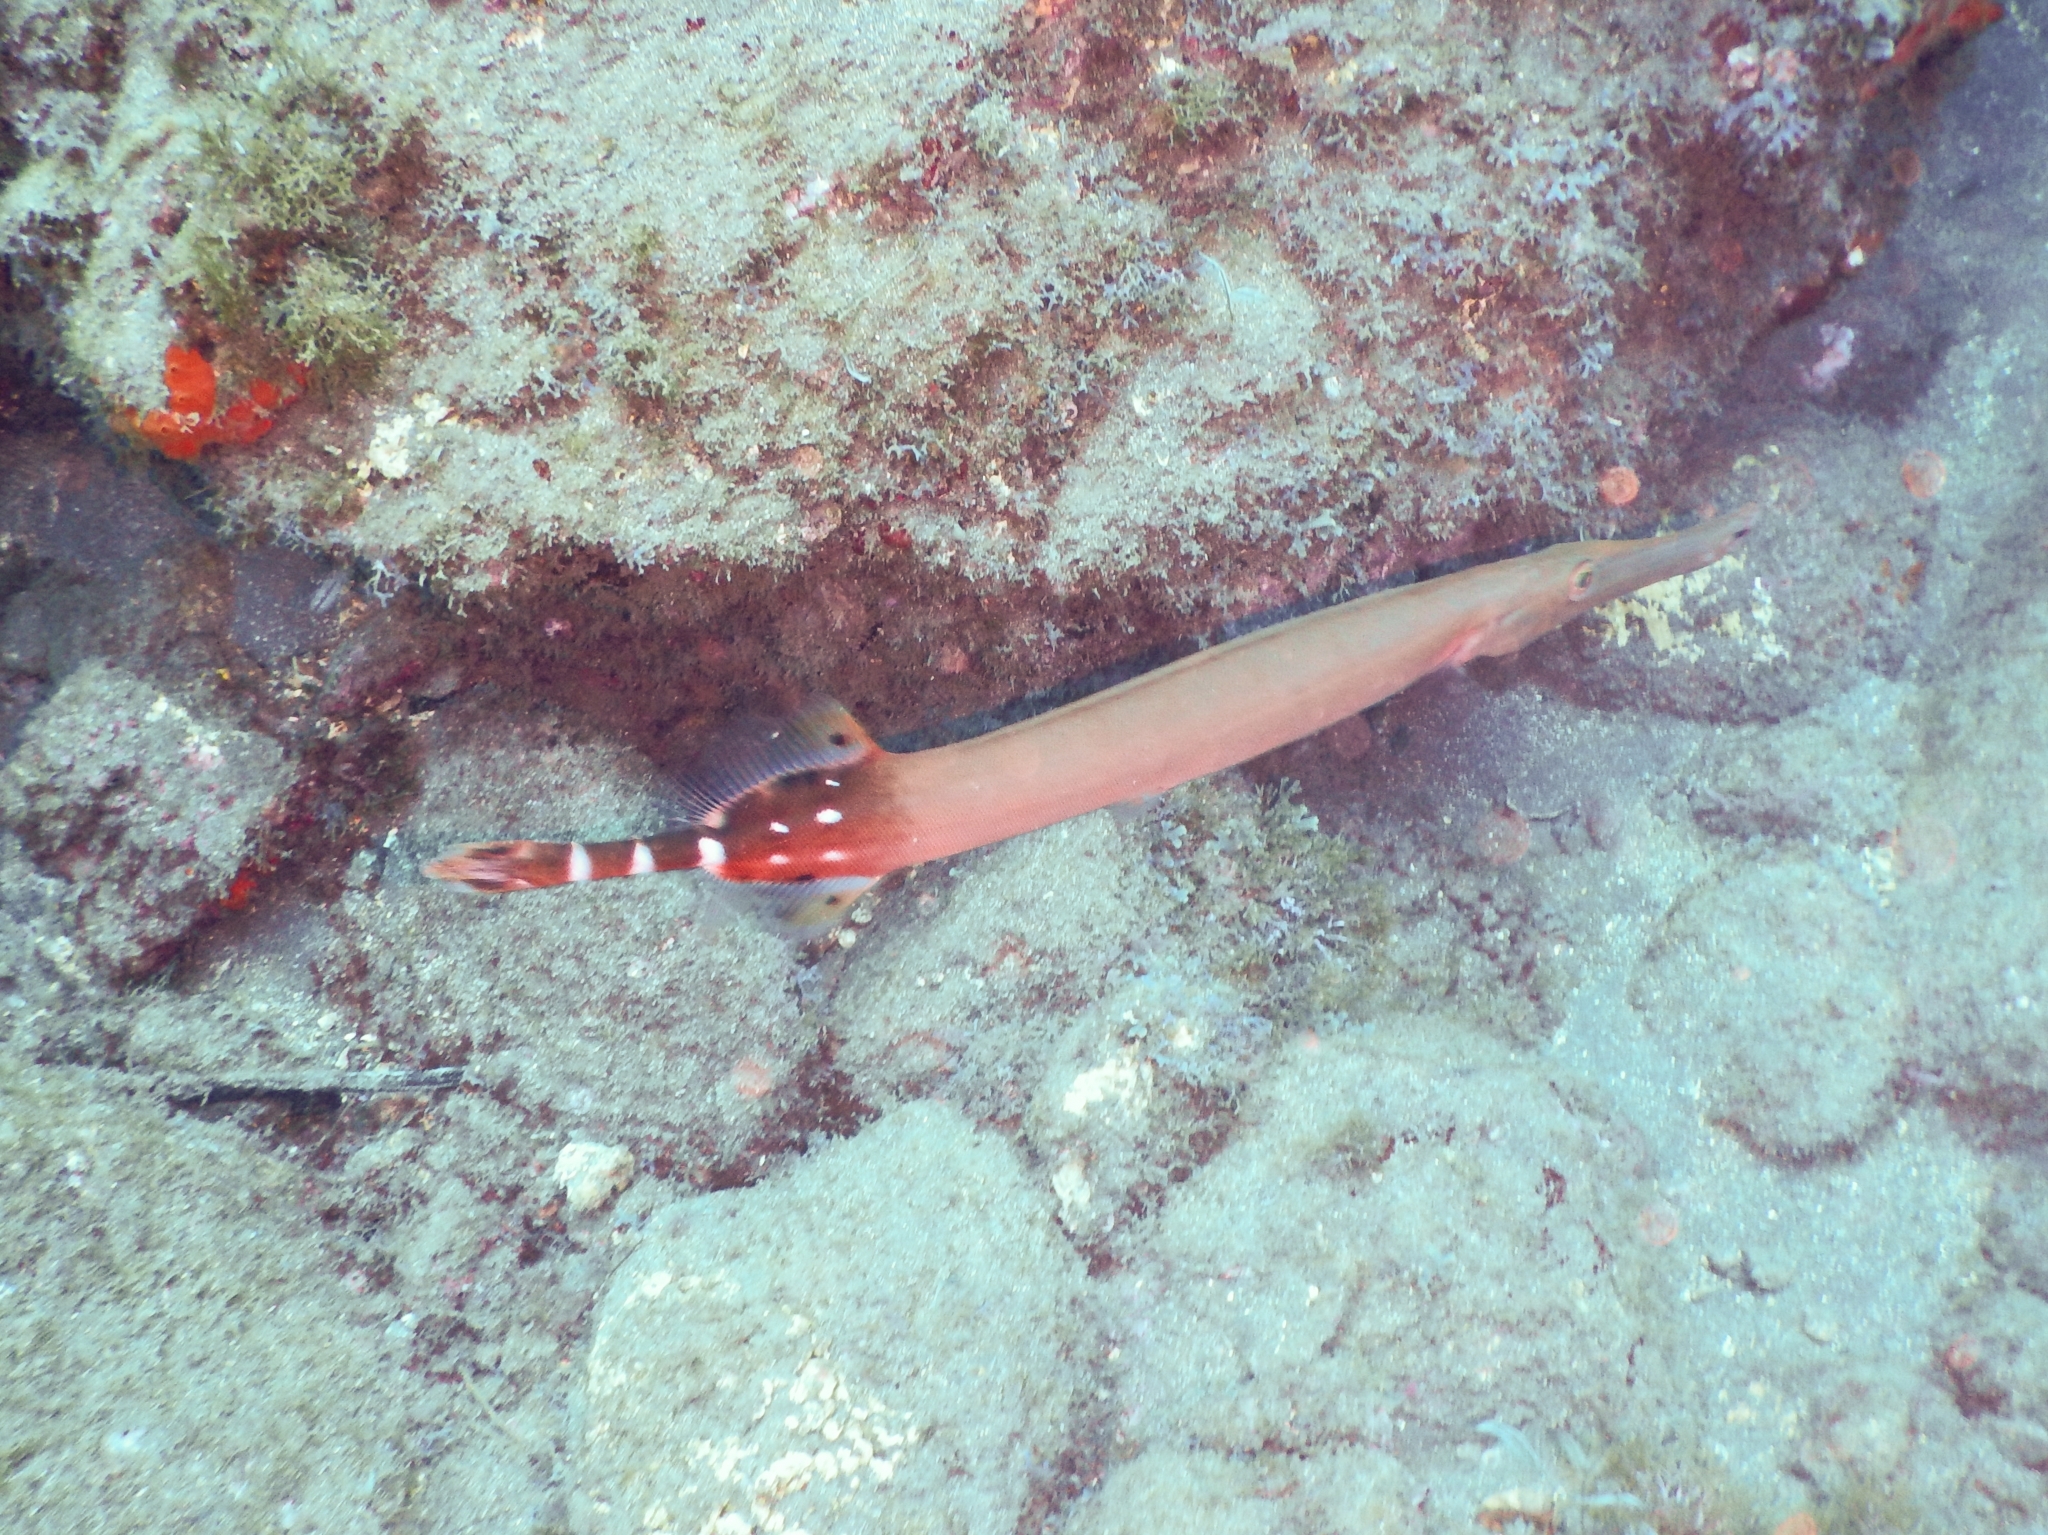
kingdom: Animalia
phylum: Chordata
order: Syngnathiformes
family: Aulostomidae
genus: Aulostomus
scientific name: Aulostomus strigosus
